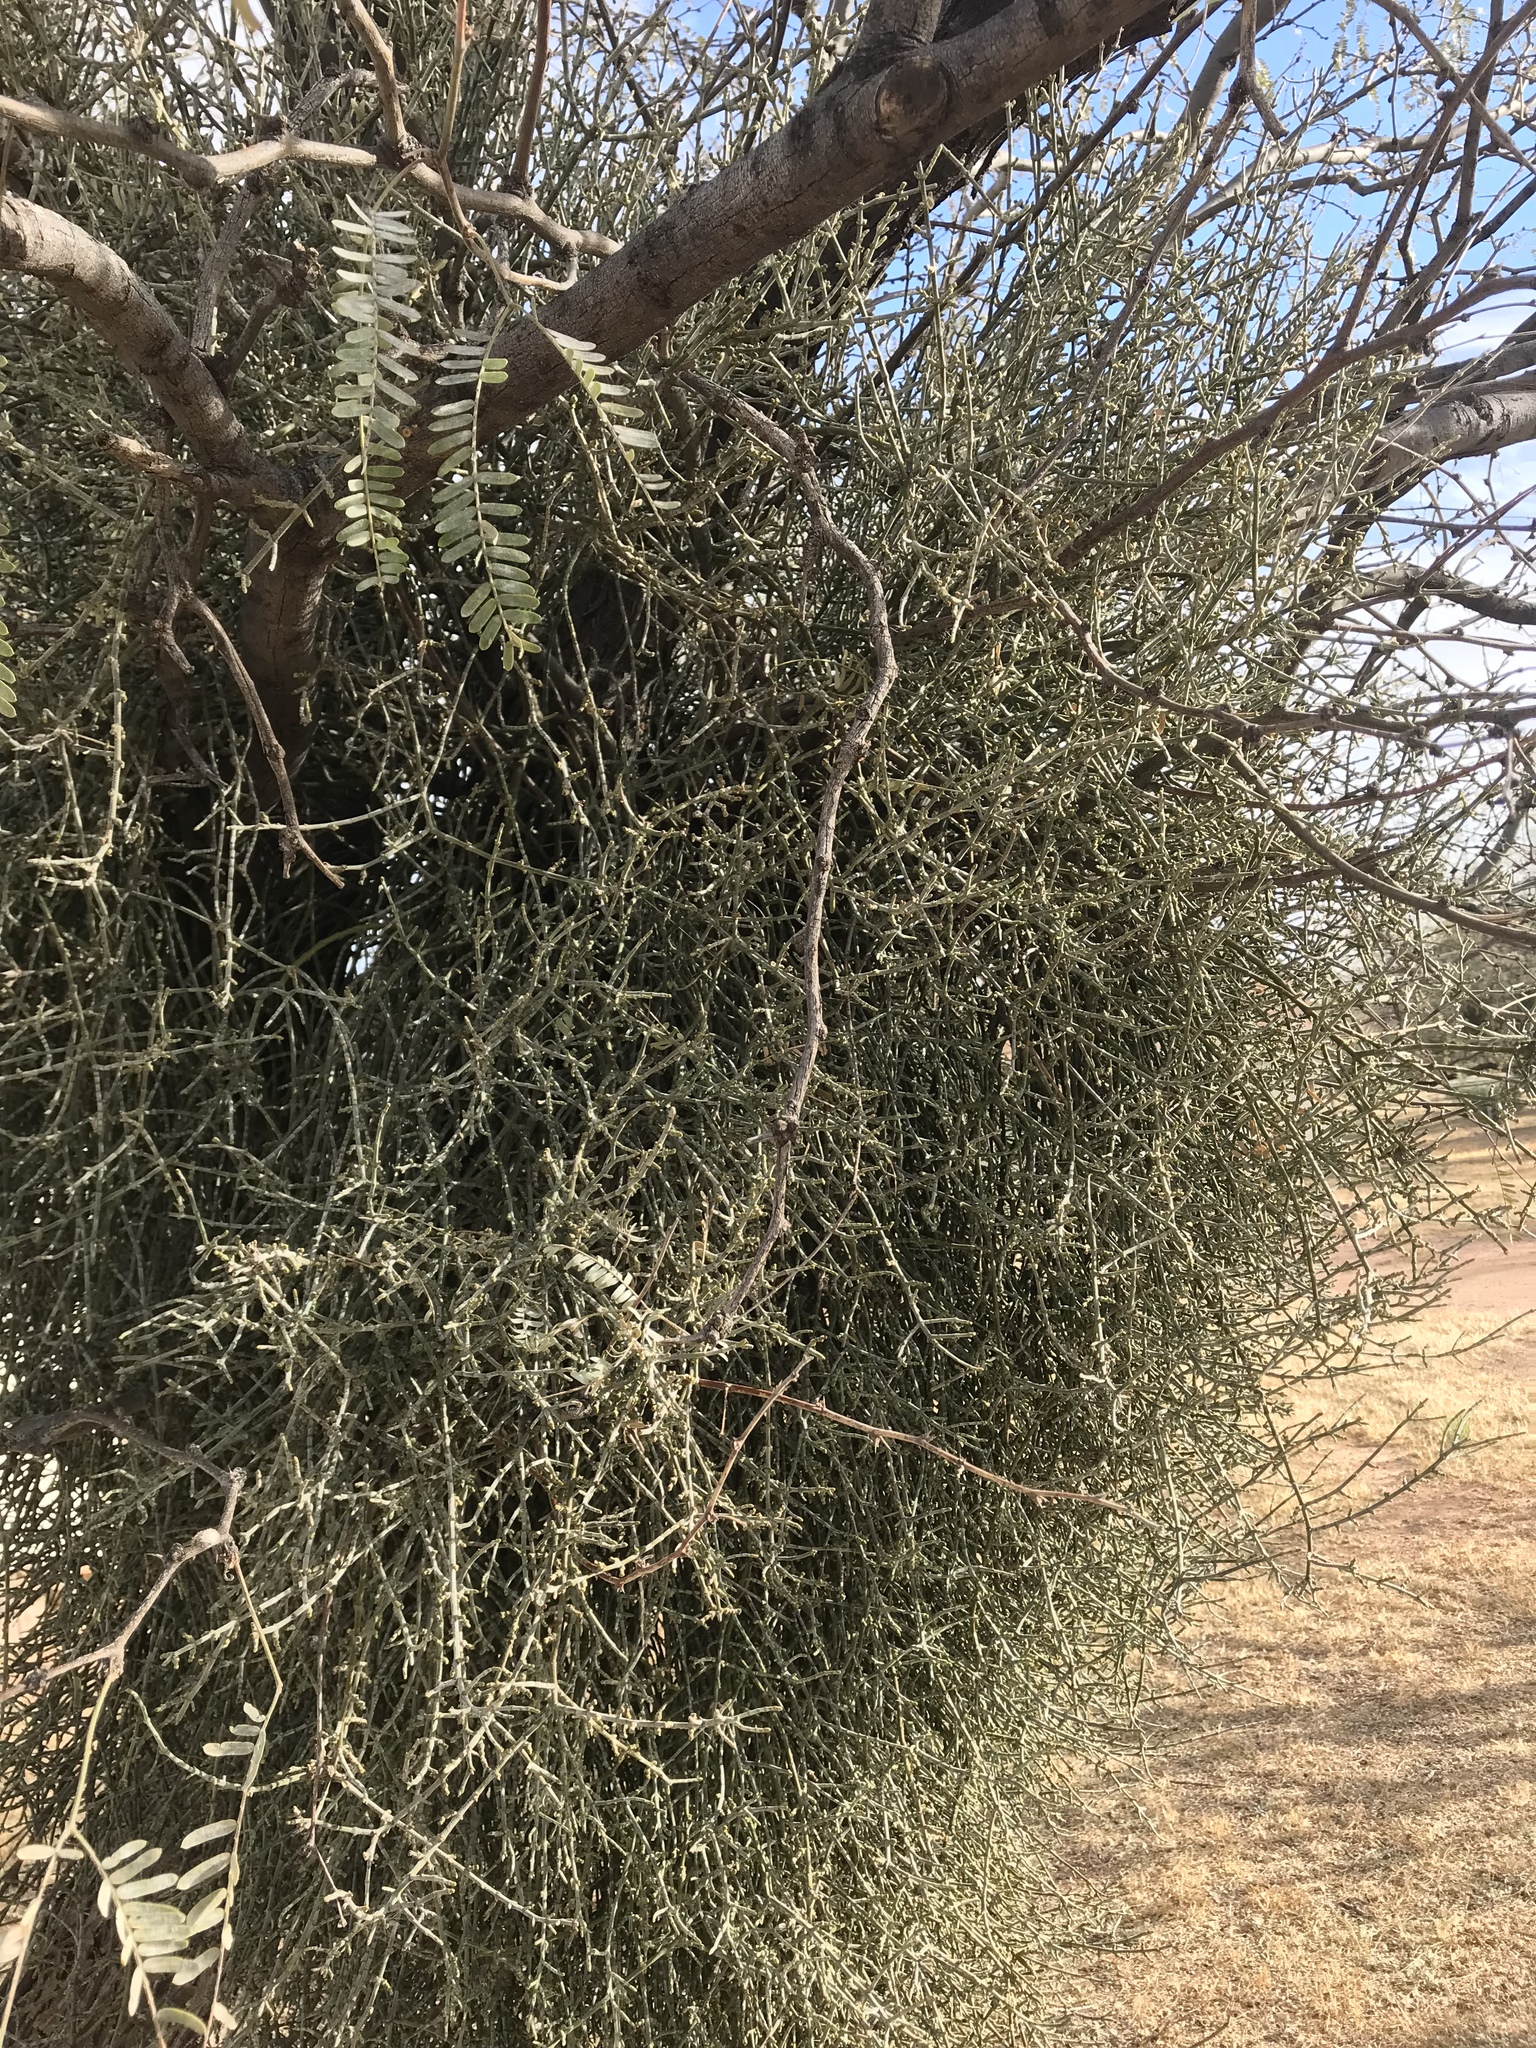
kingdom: Plantae
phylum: Tracheophyta
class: Magnoliopsida
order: Santalales
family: Viscaceae
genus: Phoradendron
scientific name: Phoradendron californicum
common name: Acacia mistletoe
